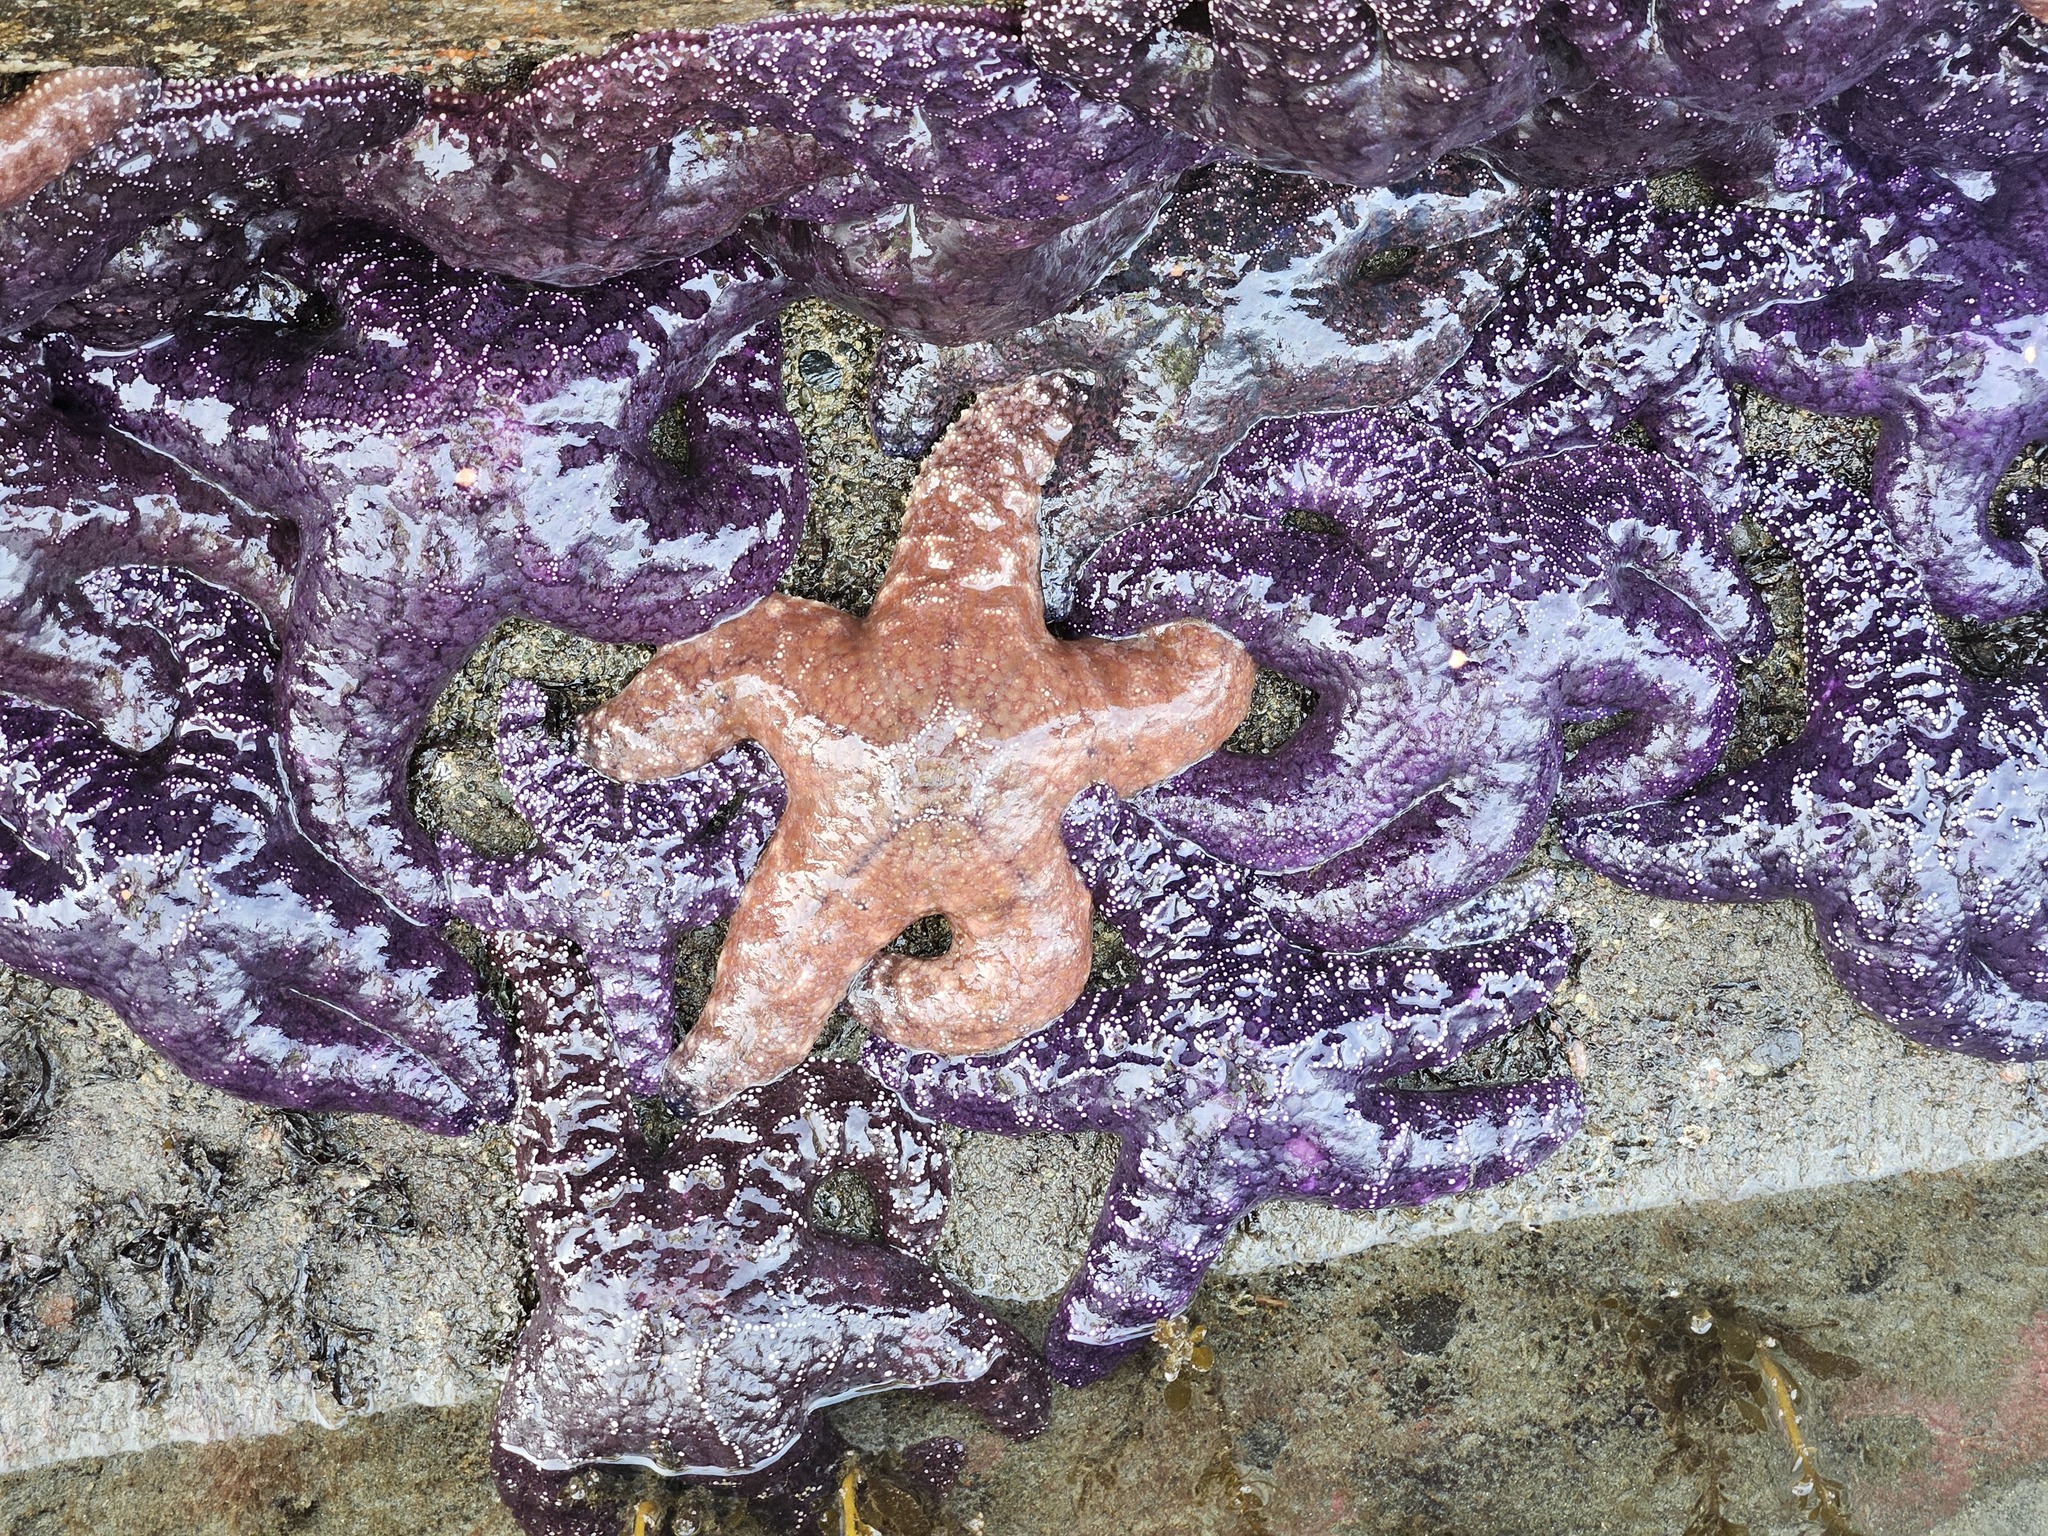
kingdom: Animalia
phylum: Echinodermata
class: Asteroidea
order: Forcipulatida
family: Asteriidae
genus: Pisaster
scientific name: Pisaster ochraceus
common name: Ochre stars
